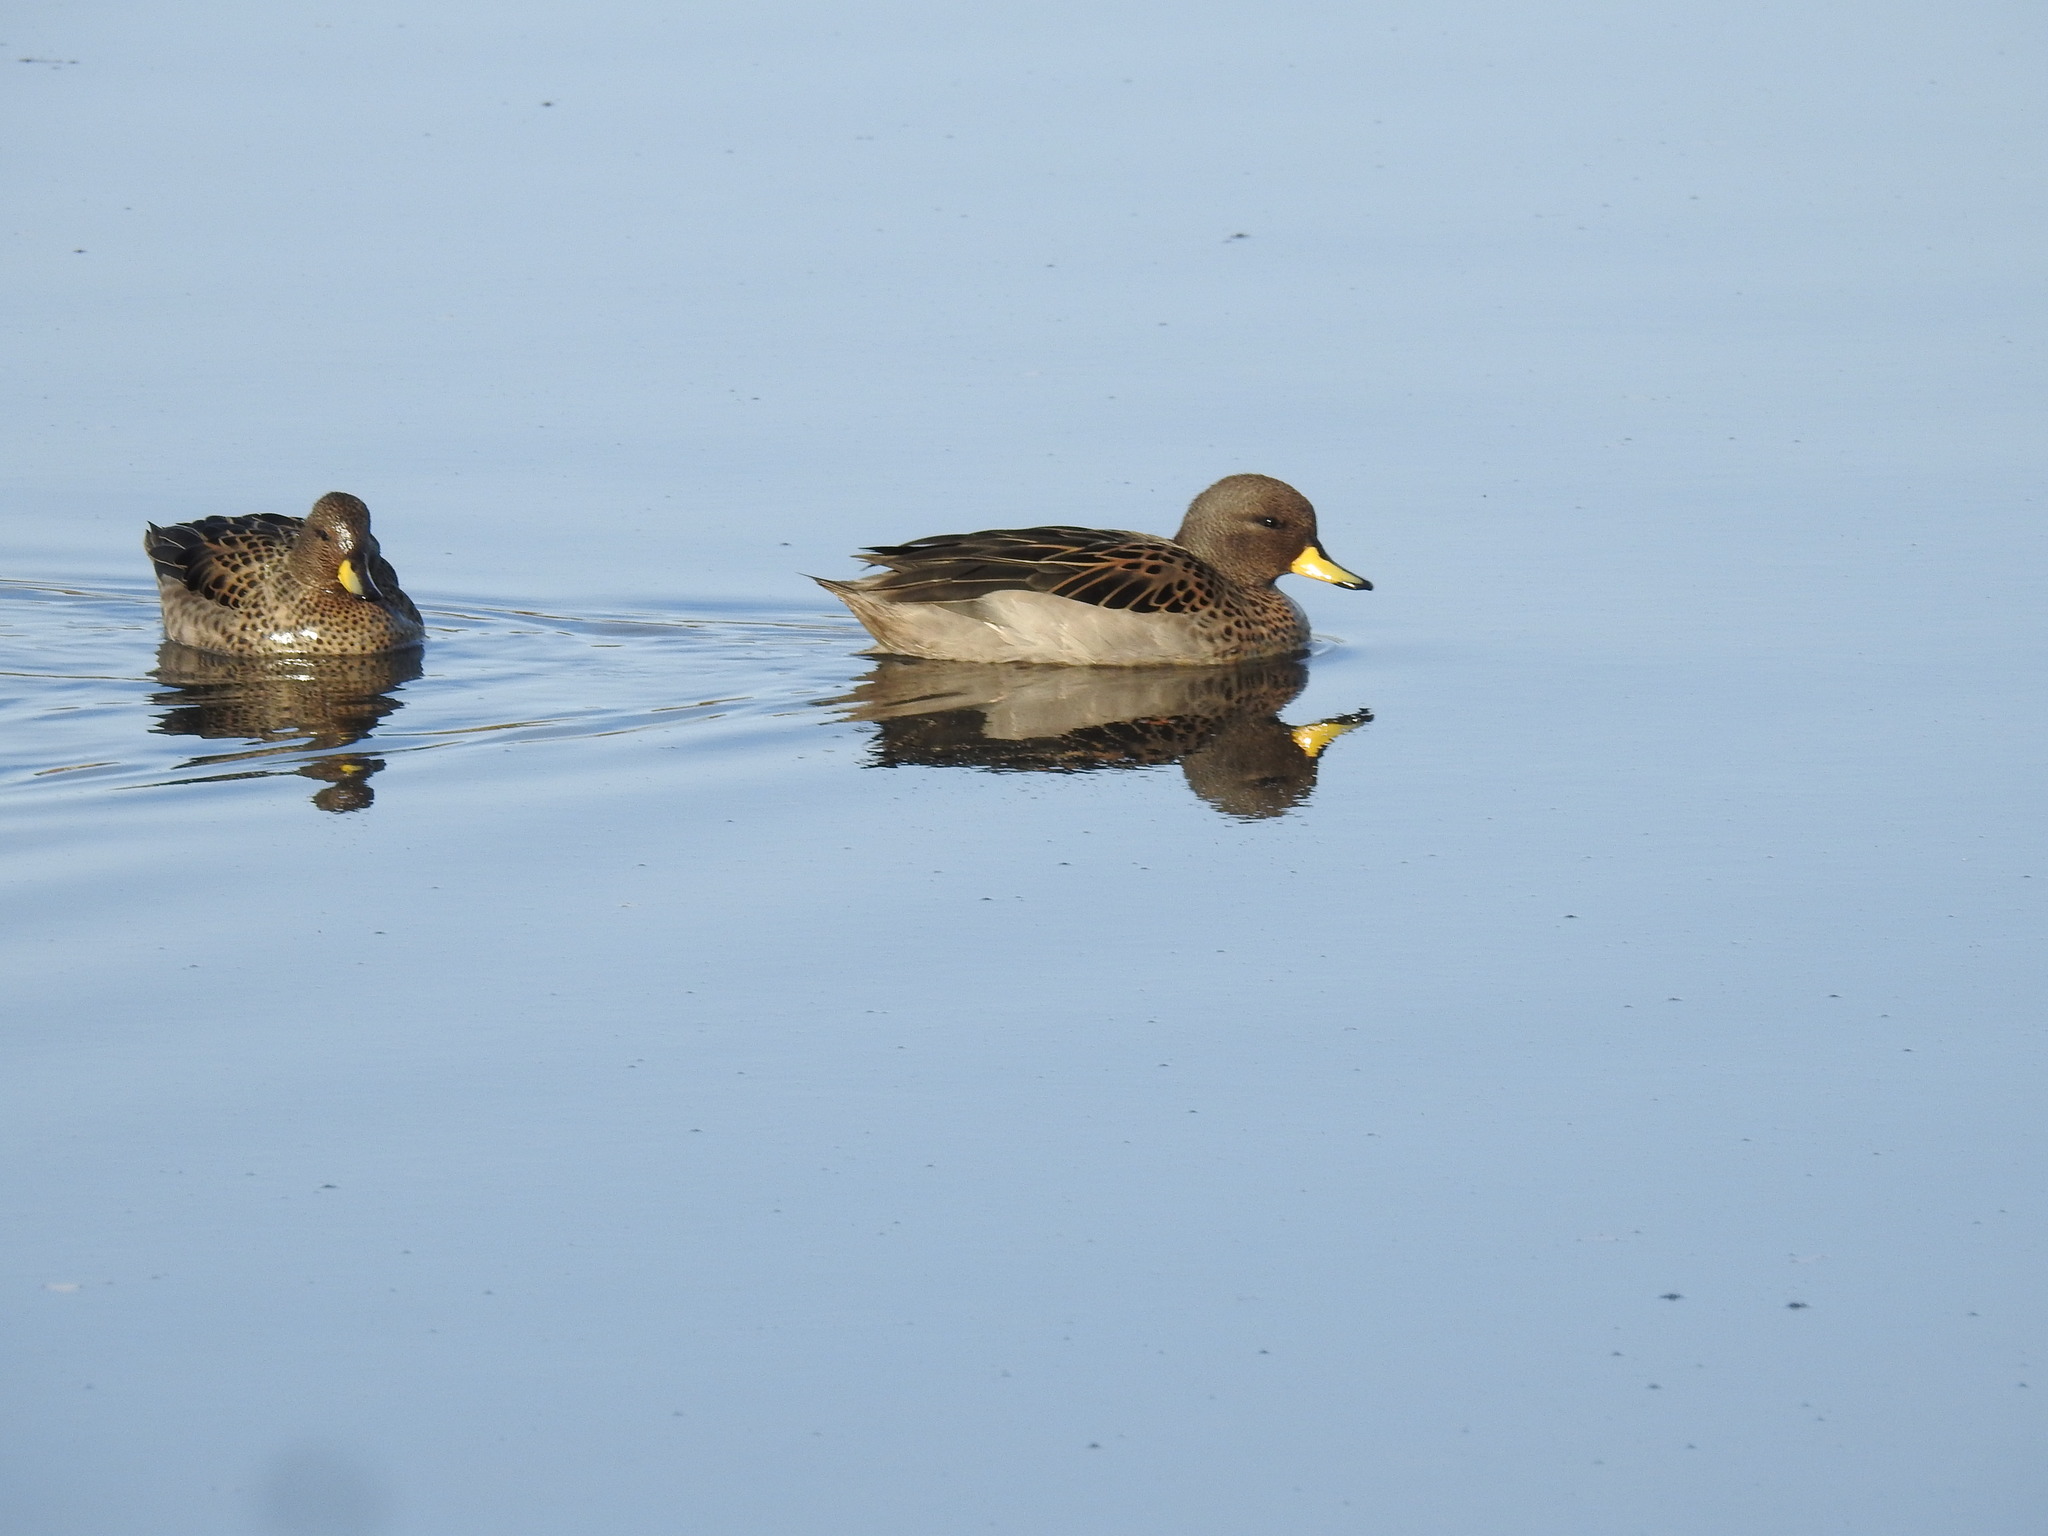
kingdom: Animalia
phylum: Chordata
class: Aves
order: Anseriformes
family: Anatidae
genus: Anas
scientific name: Anas flavirostris
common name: Yellow-billed teal
